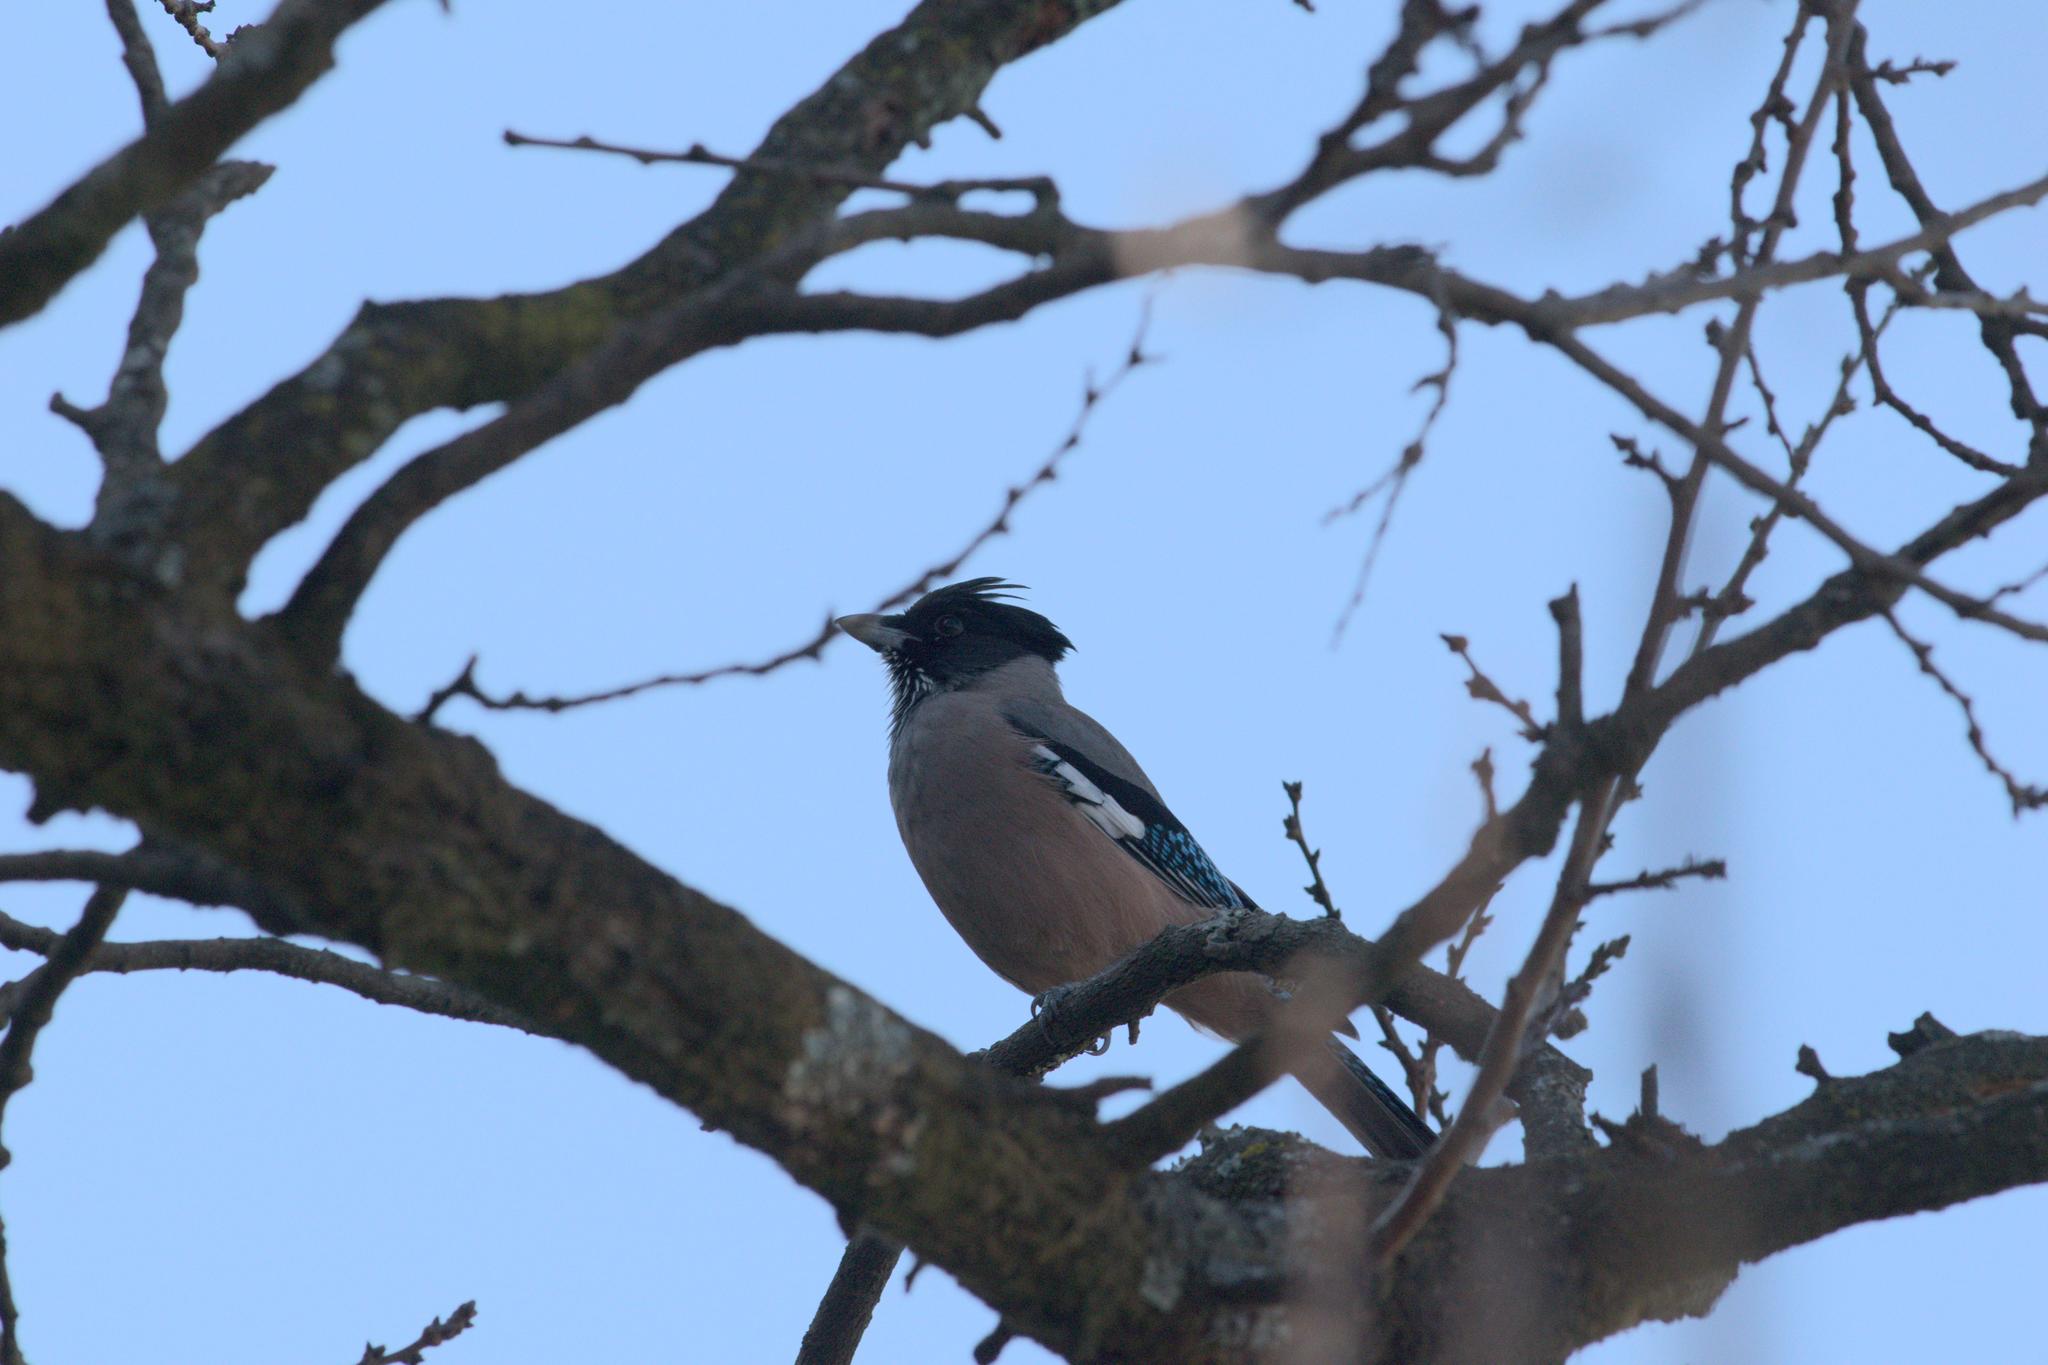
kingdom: Animalia
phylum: Chordata
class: Aves
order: Passeriformes
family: Corvidae
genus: Garrulus
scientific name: Garrulus lanceolatus
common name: Black-headed jay
